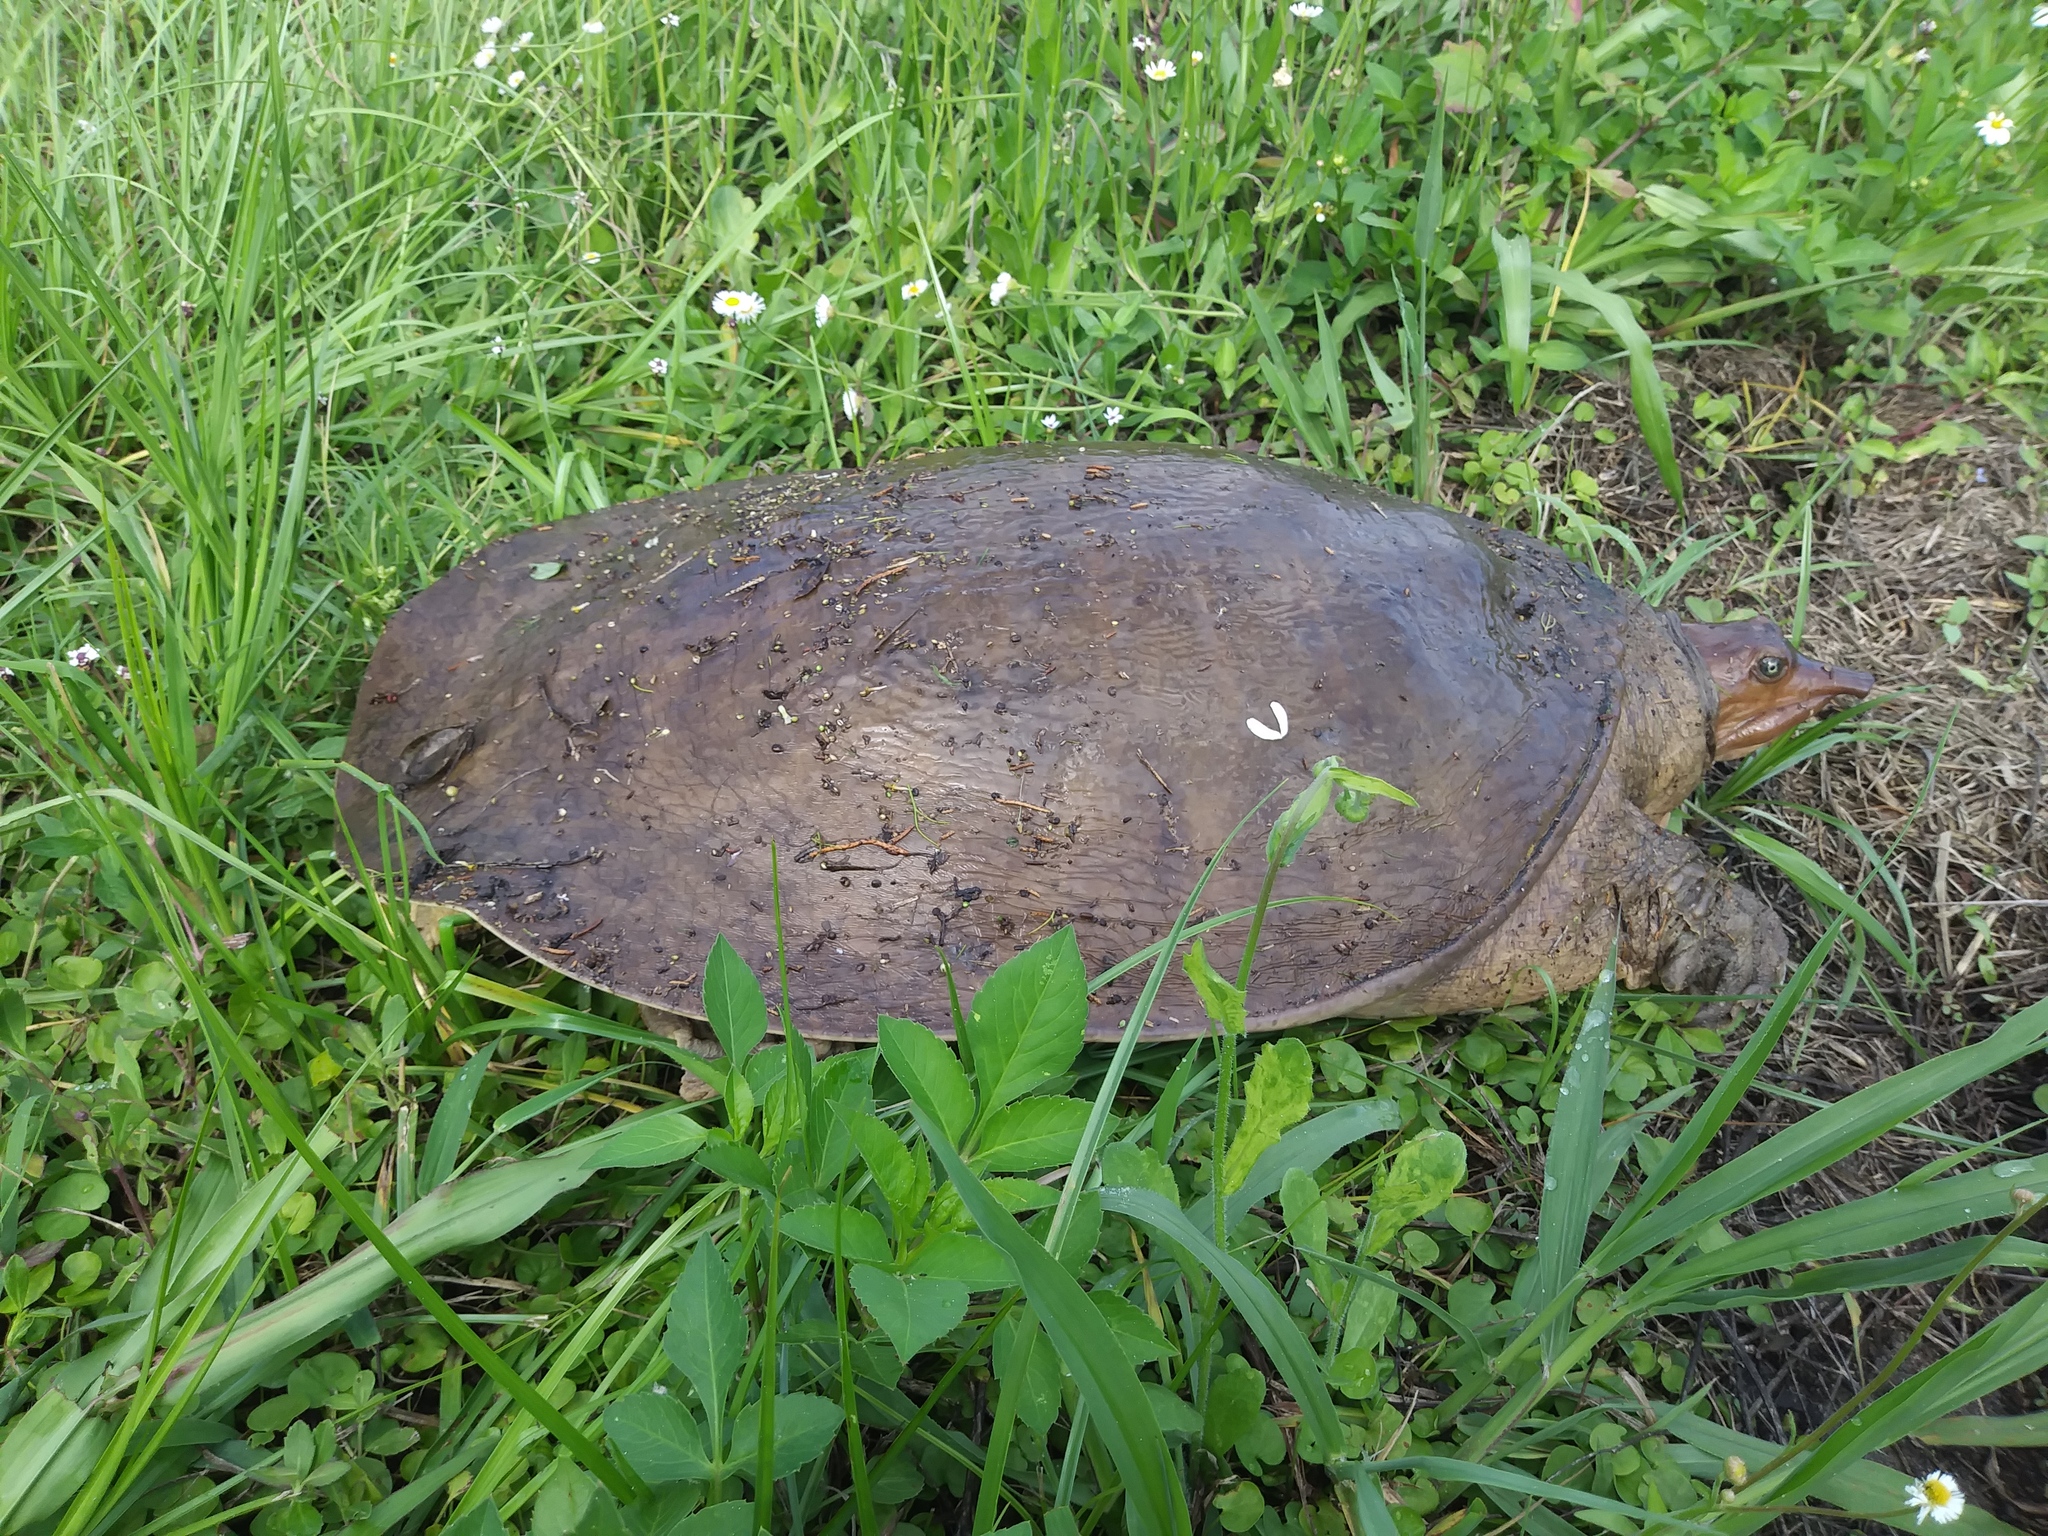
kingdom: Animalia
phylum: Chordata
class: Testudines
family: Trionychidae
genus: Apalone
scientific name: Apalone ferox
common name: Florida softshell turtle
